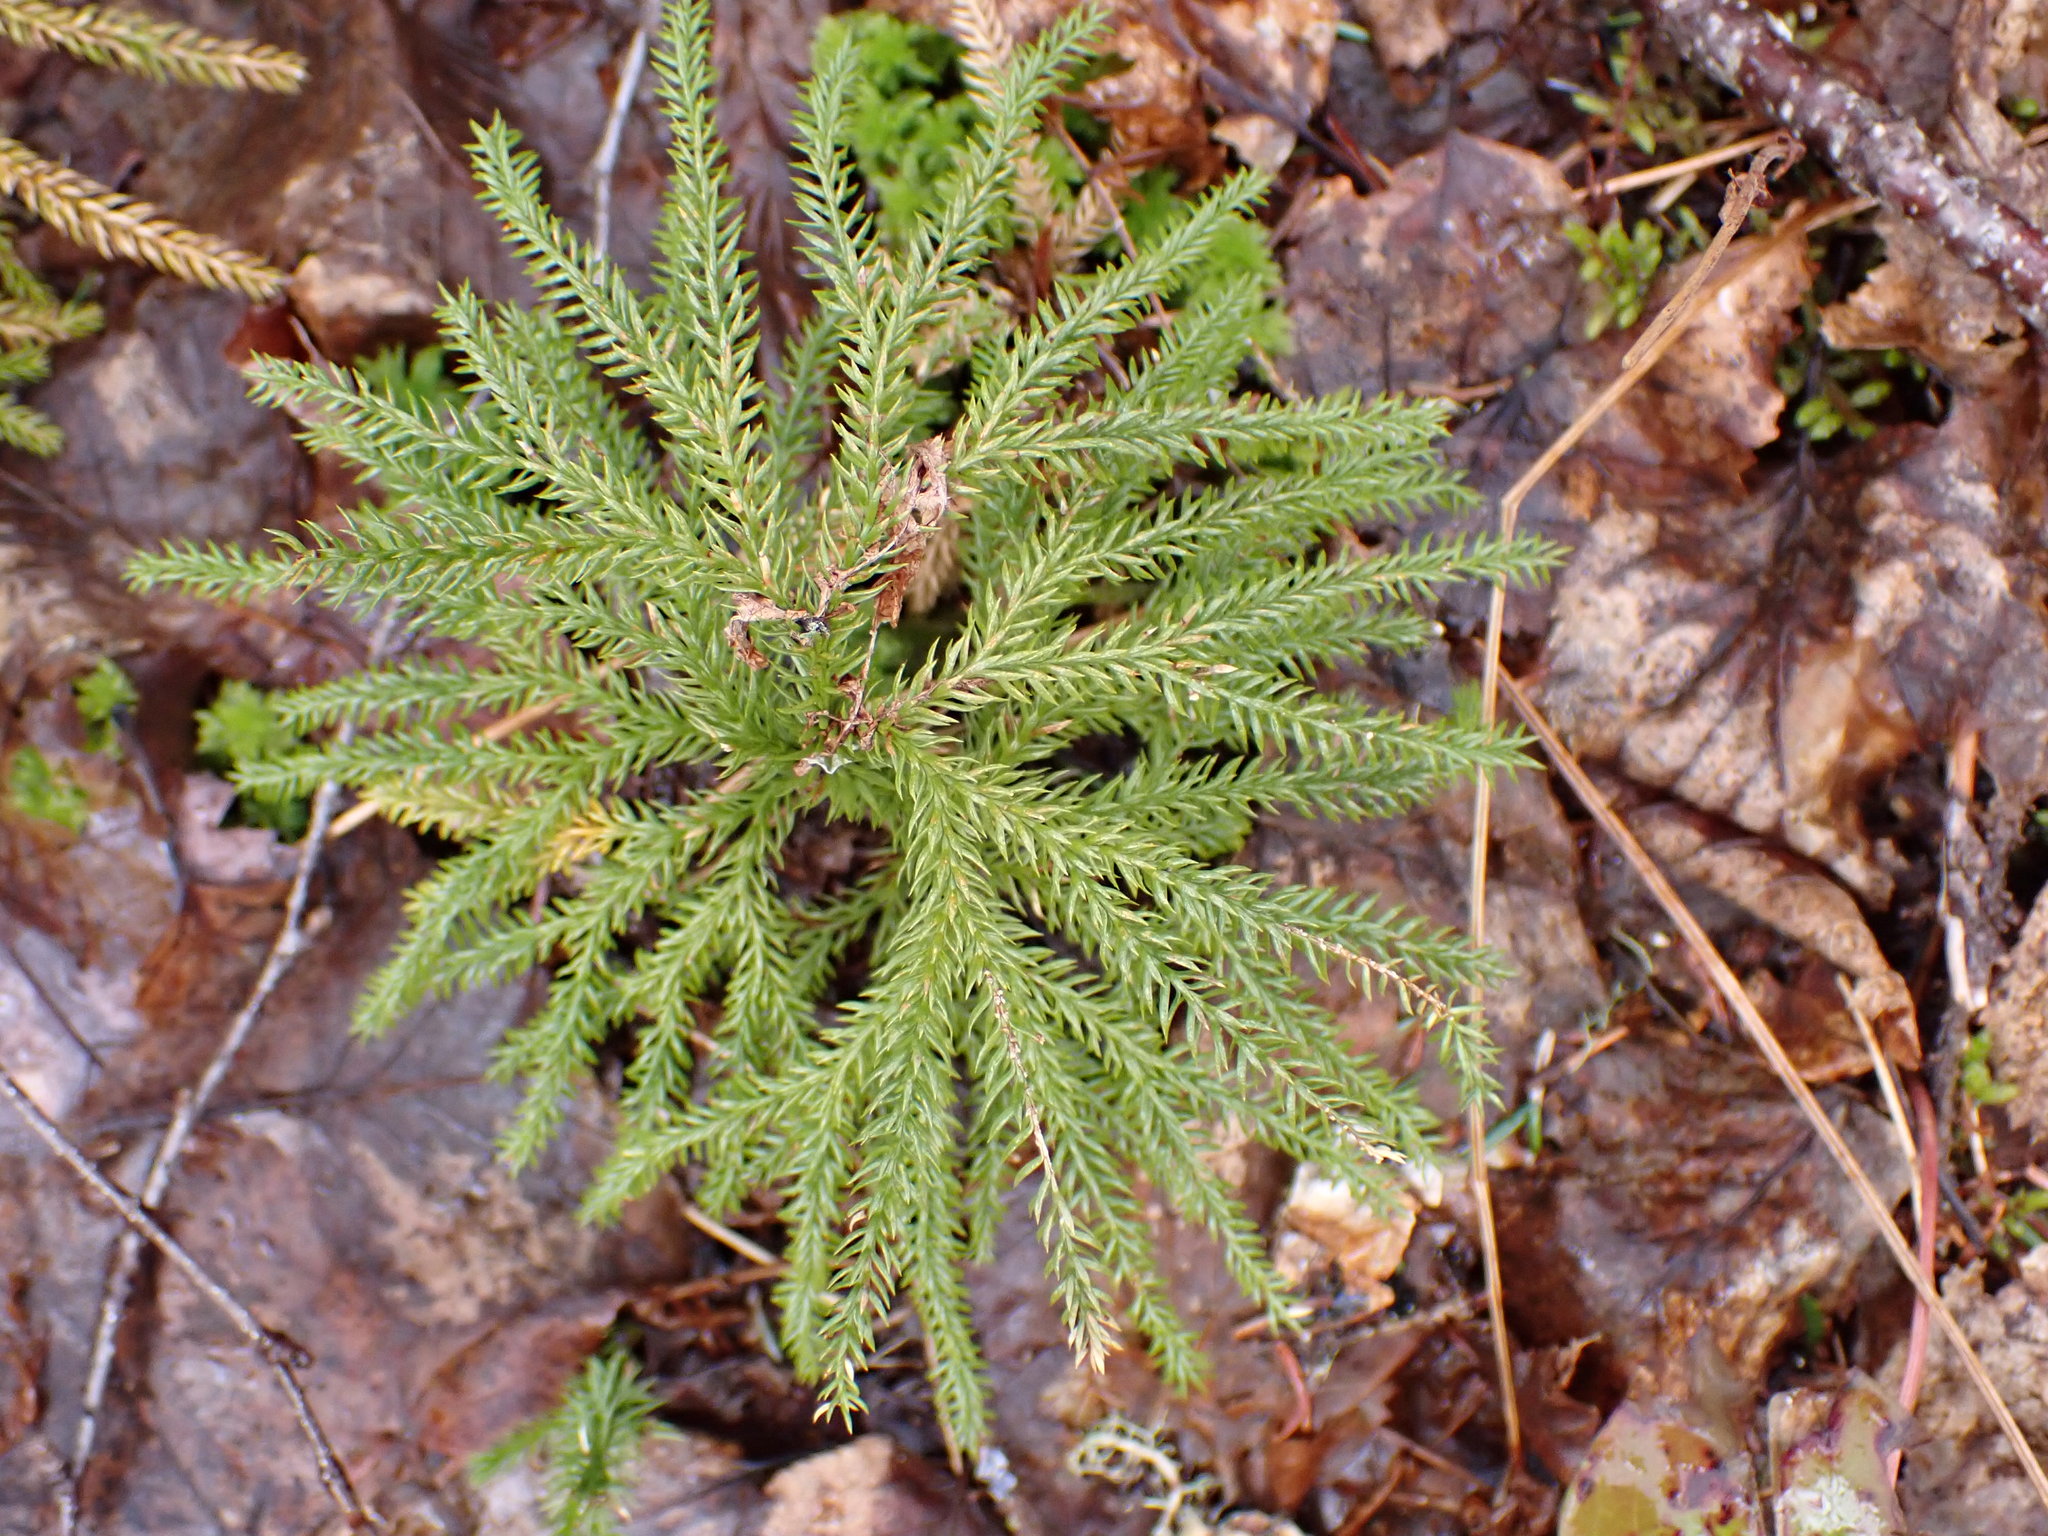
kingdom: Plantae
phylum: Tracheophyta
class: Lycopodiopsida
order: Lycopodiales
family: Lycopodiaceae
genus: Dendrolycopodium
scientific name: Dendrolycopodium dendroideum
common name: Northern tree-clubmoss
